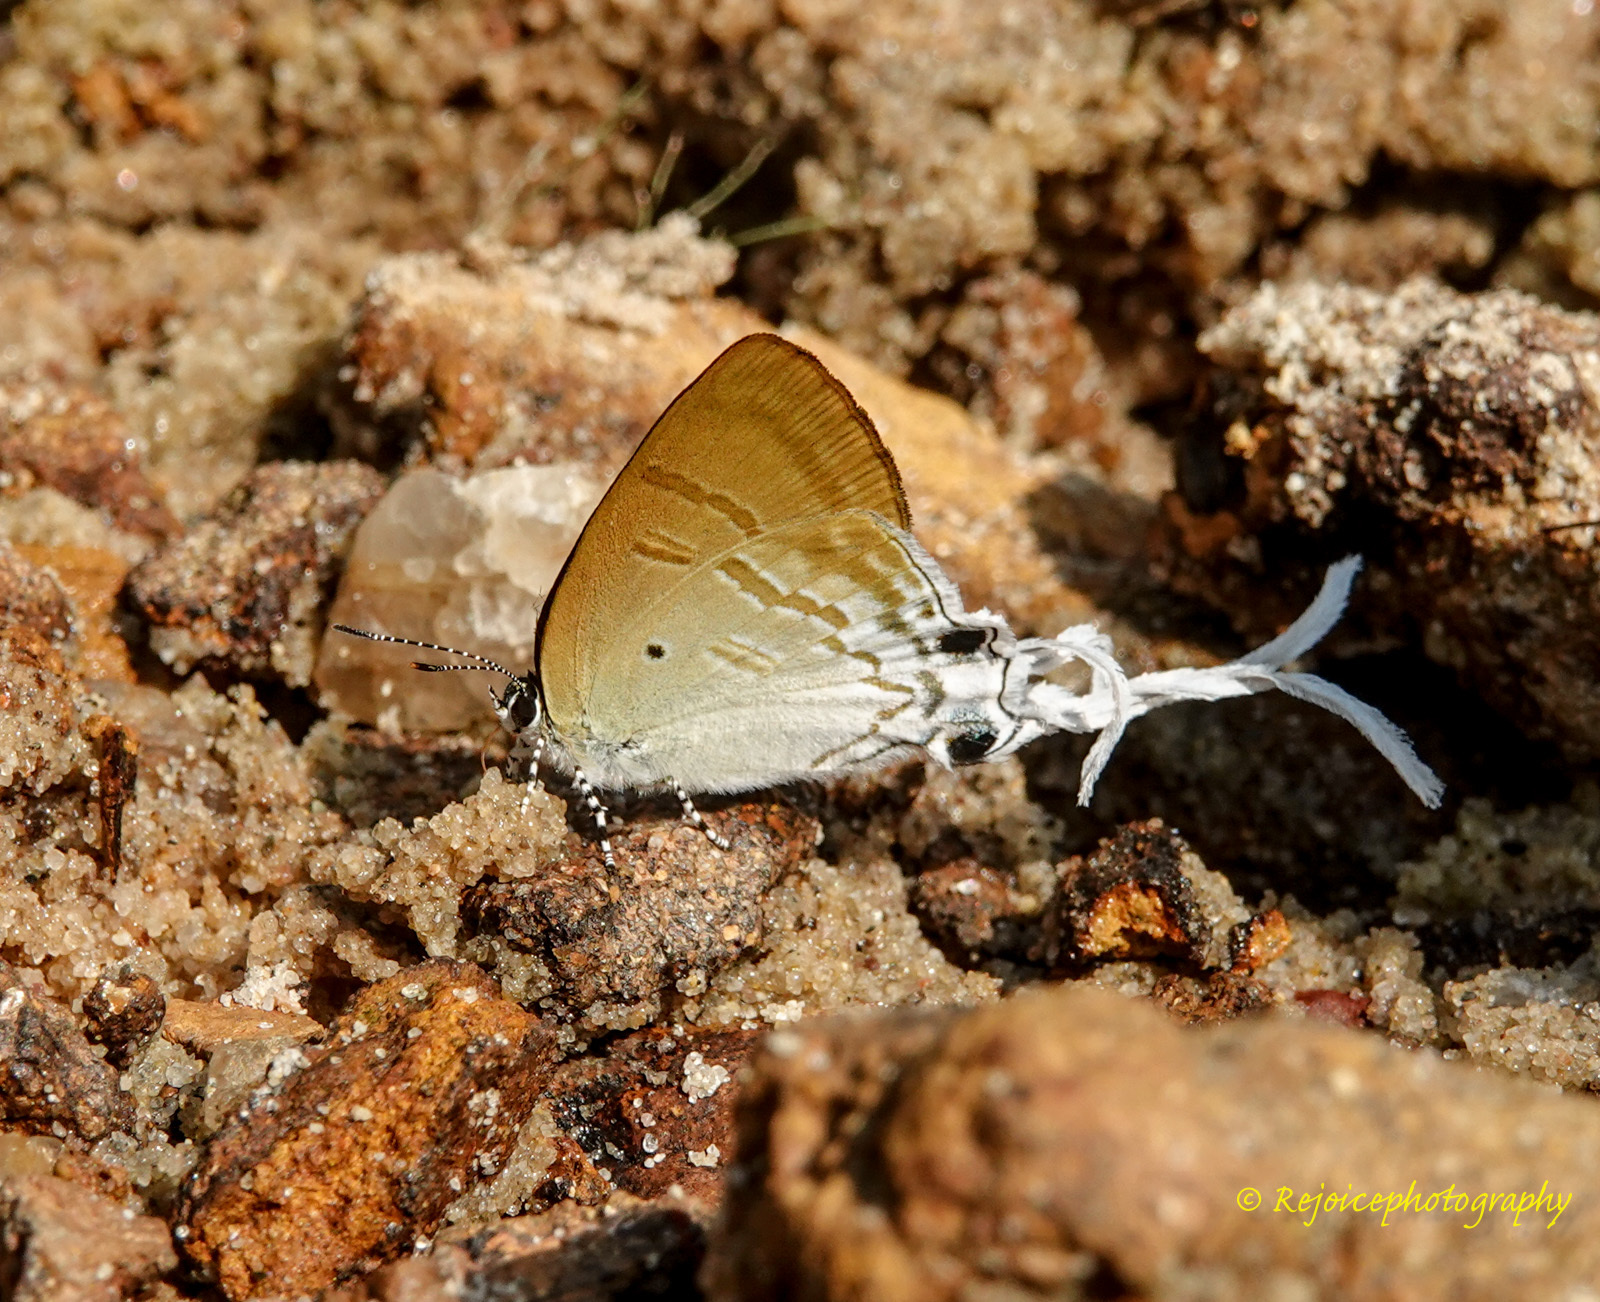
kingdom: Animalia
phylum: Arthropoda
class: Insecta
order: Lepidoptera
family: Lycaenidae
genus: Zeltus
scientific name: Zeltus amasa
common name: Fluffy tit
